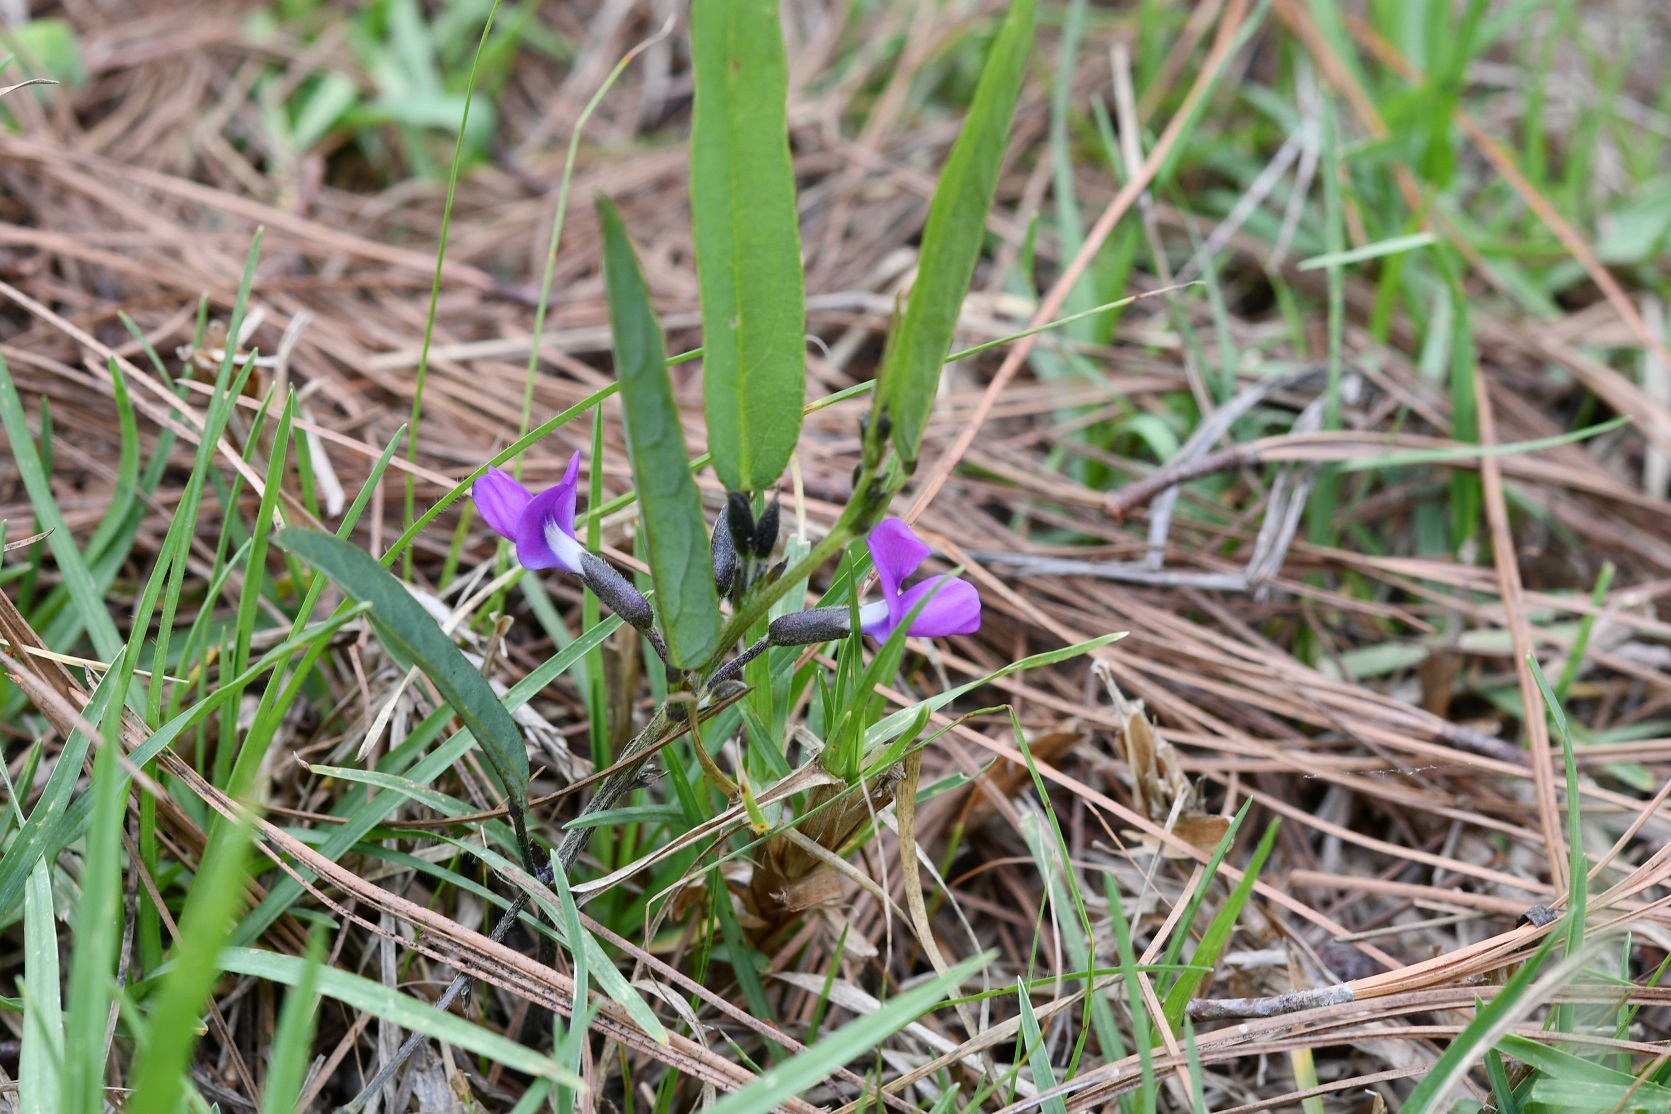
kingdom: Plantae
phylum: Tracheophyta
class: Magnoliopsida
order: Fabales
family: Fabaceae
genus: Cologania
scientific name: Cologania procumbens
